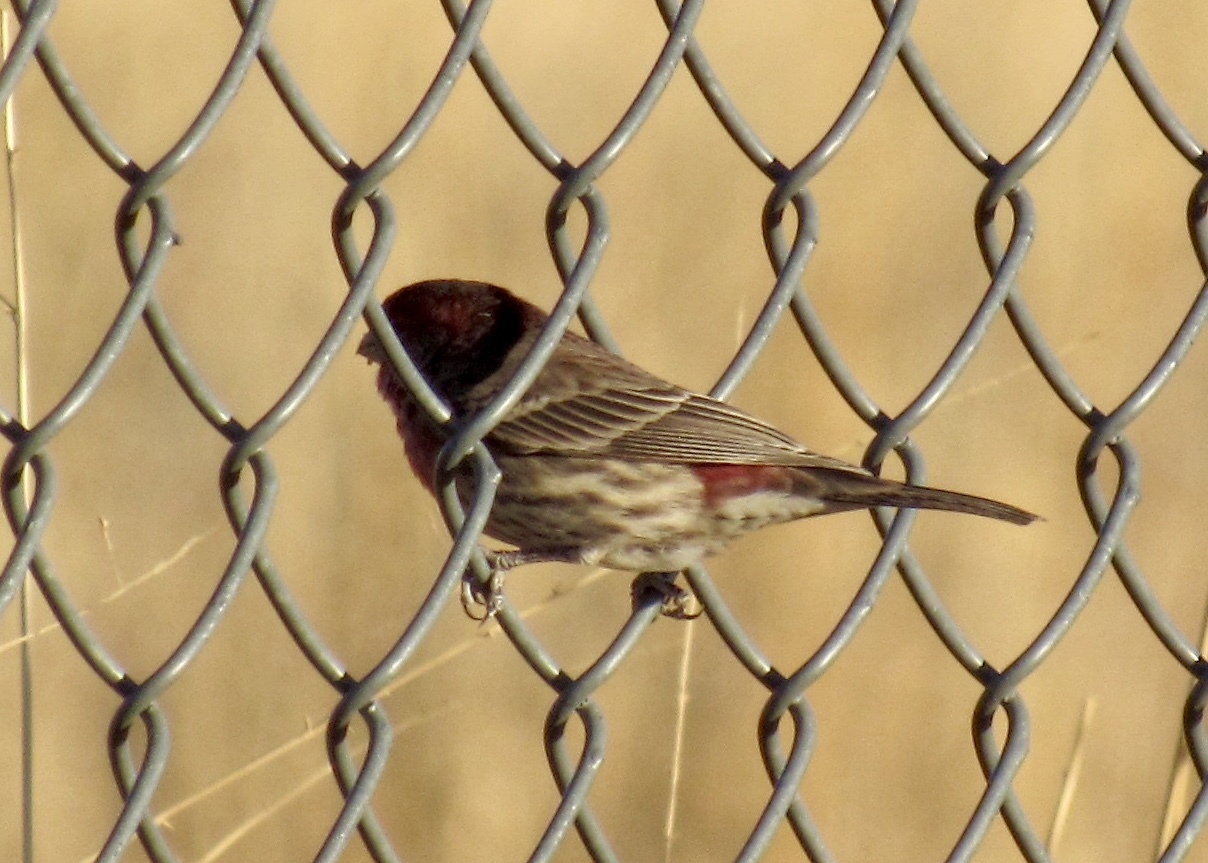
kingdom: Animalia
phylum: Chordata
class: Aves
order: Passeriformes
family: Fringillidae
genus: Haemorhous
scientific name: Haemorhous mexicanus
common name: House finch
